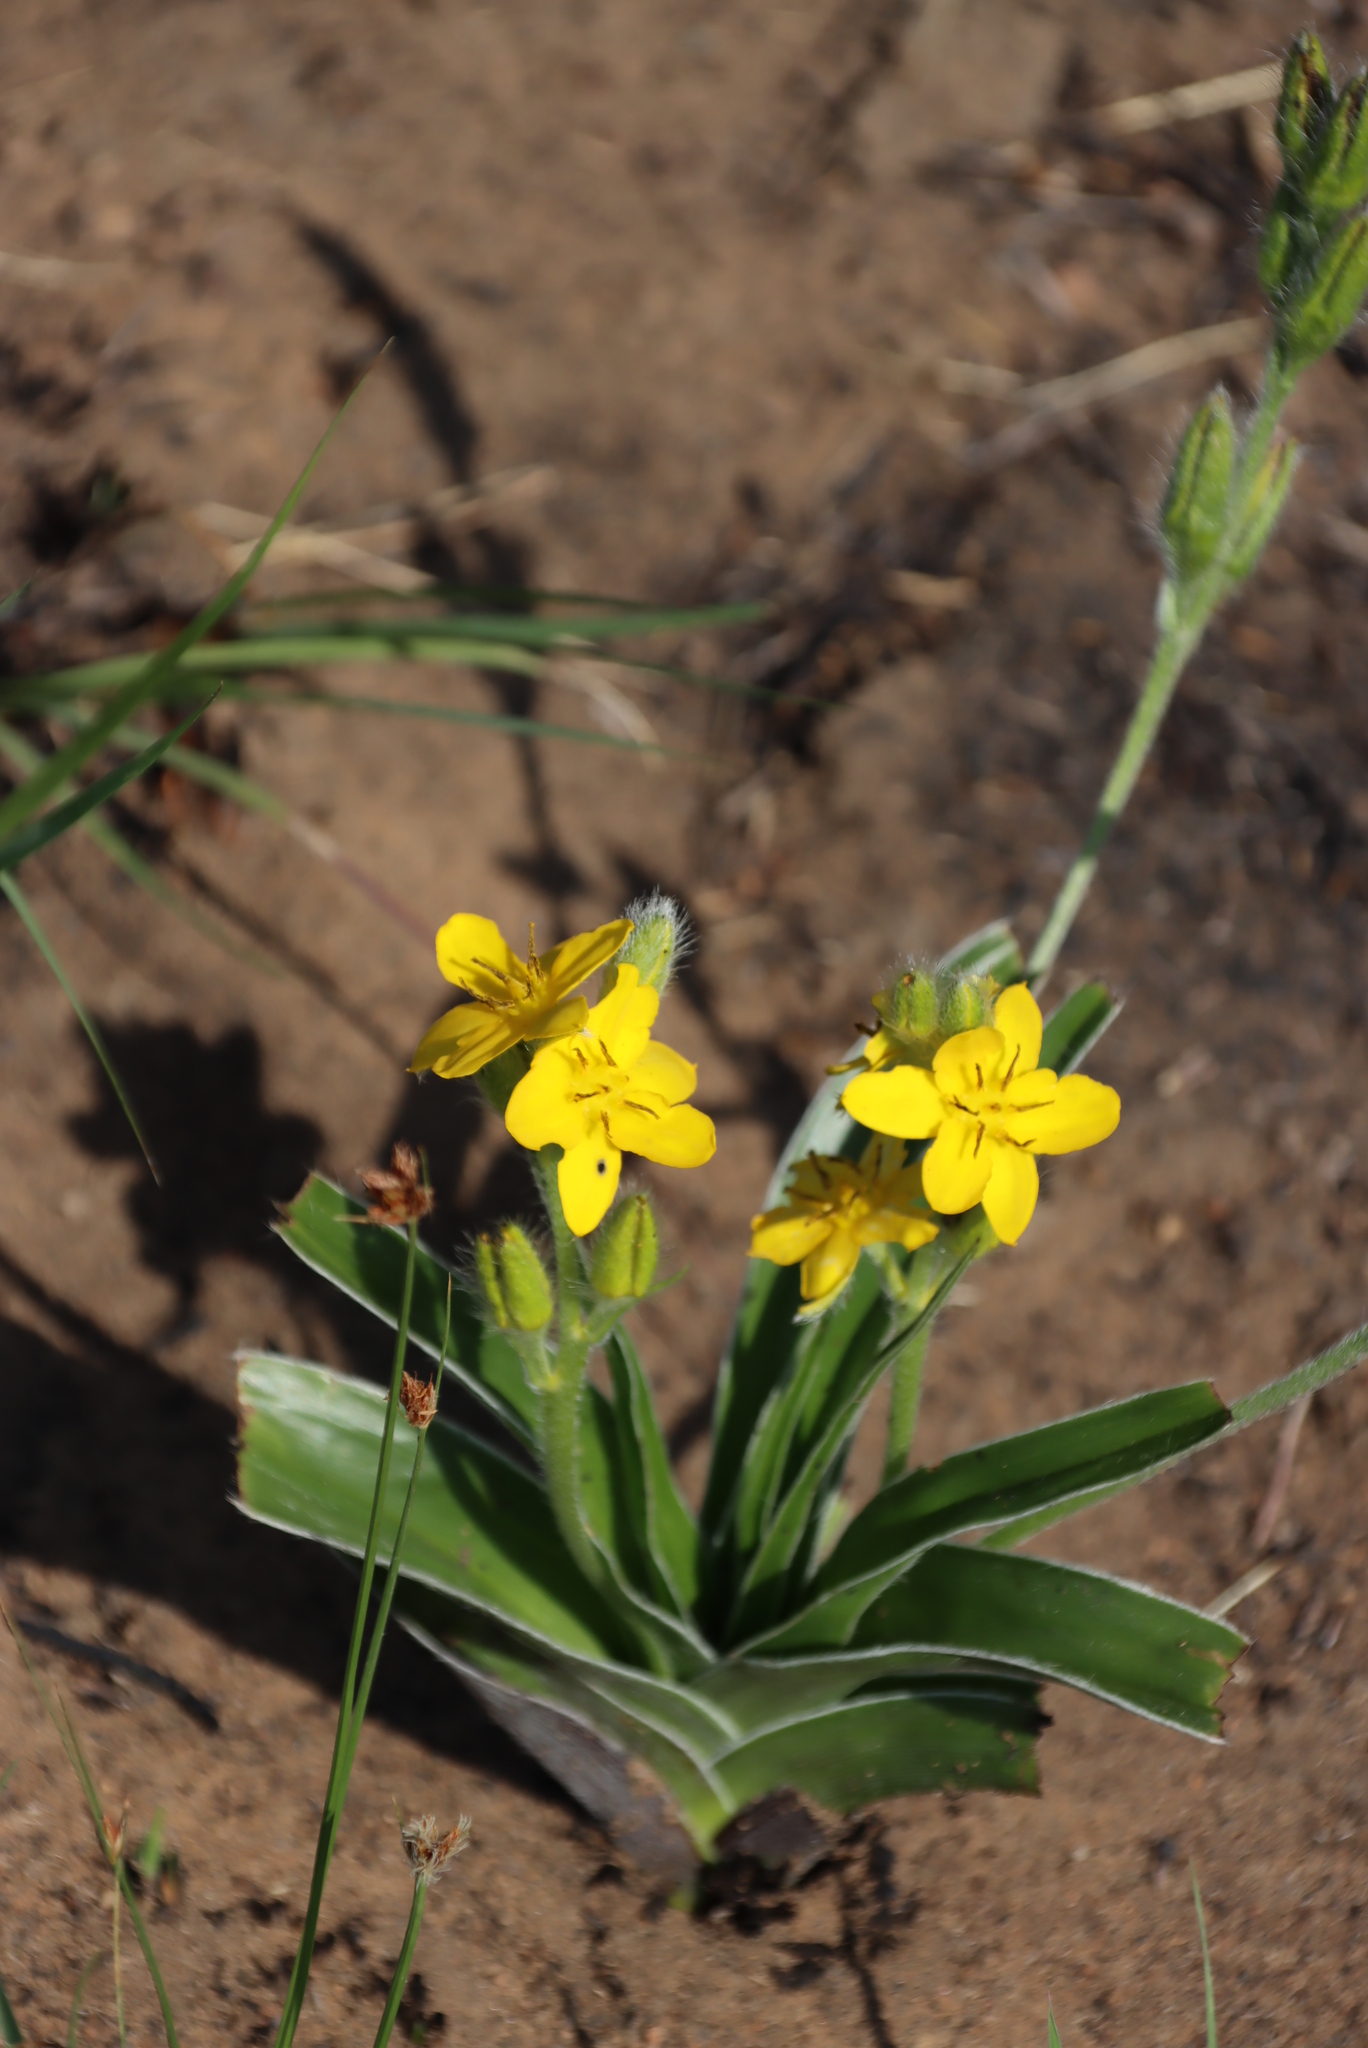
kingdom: Plantae
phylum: Tracheophyta
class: Liliopsida
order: Asparagales
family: Hypoxidaceae
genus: Hypoxis
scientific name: Hypoxis hemerocallidea
